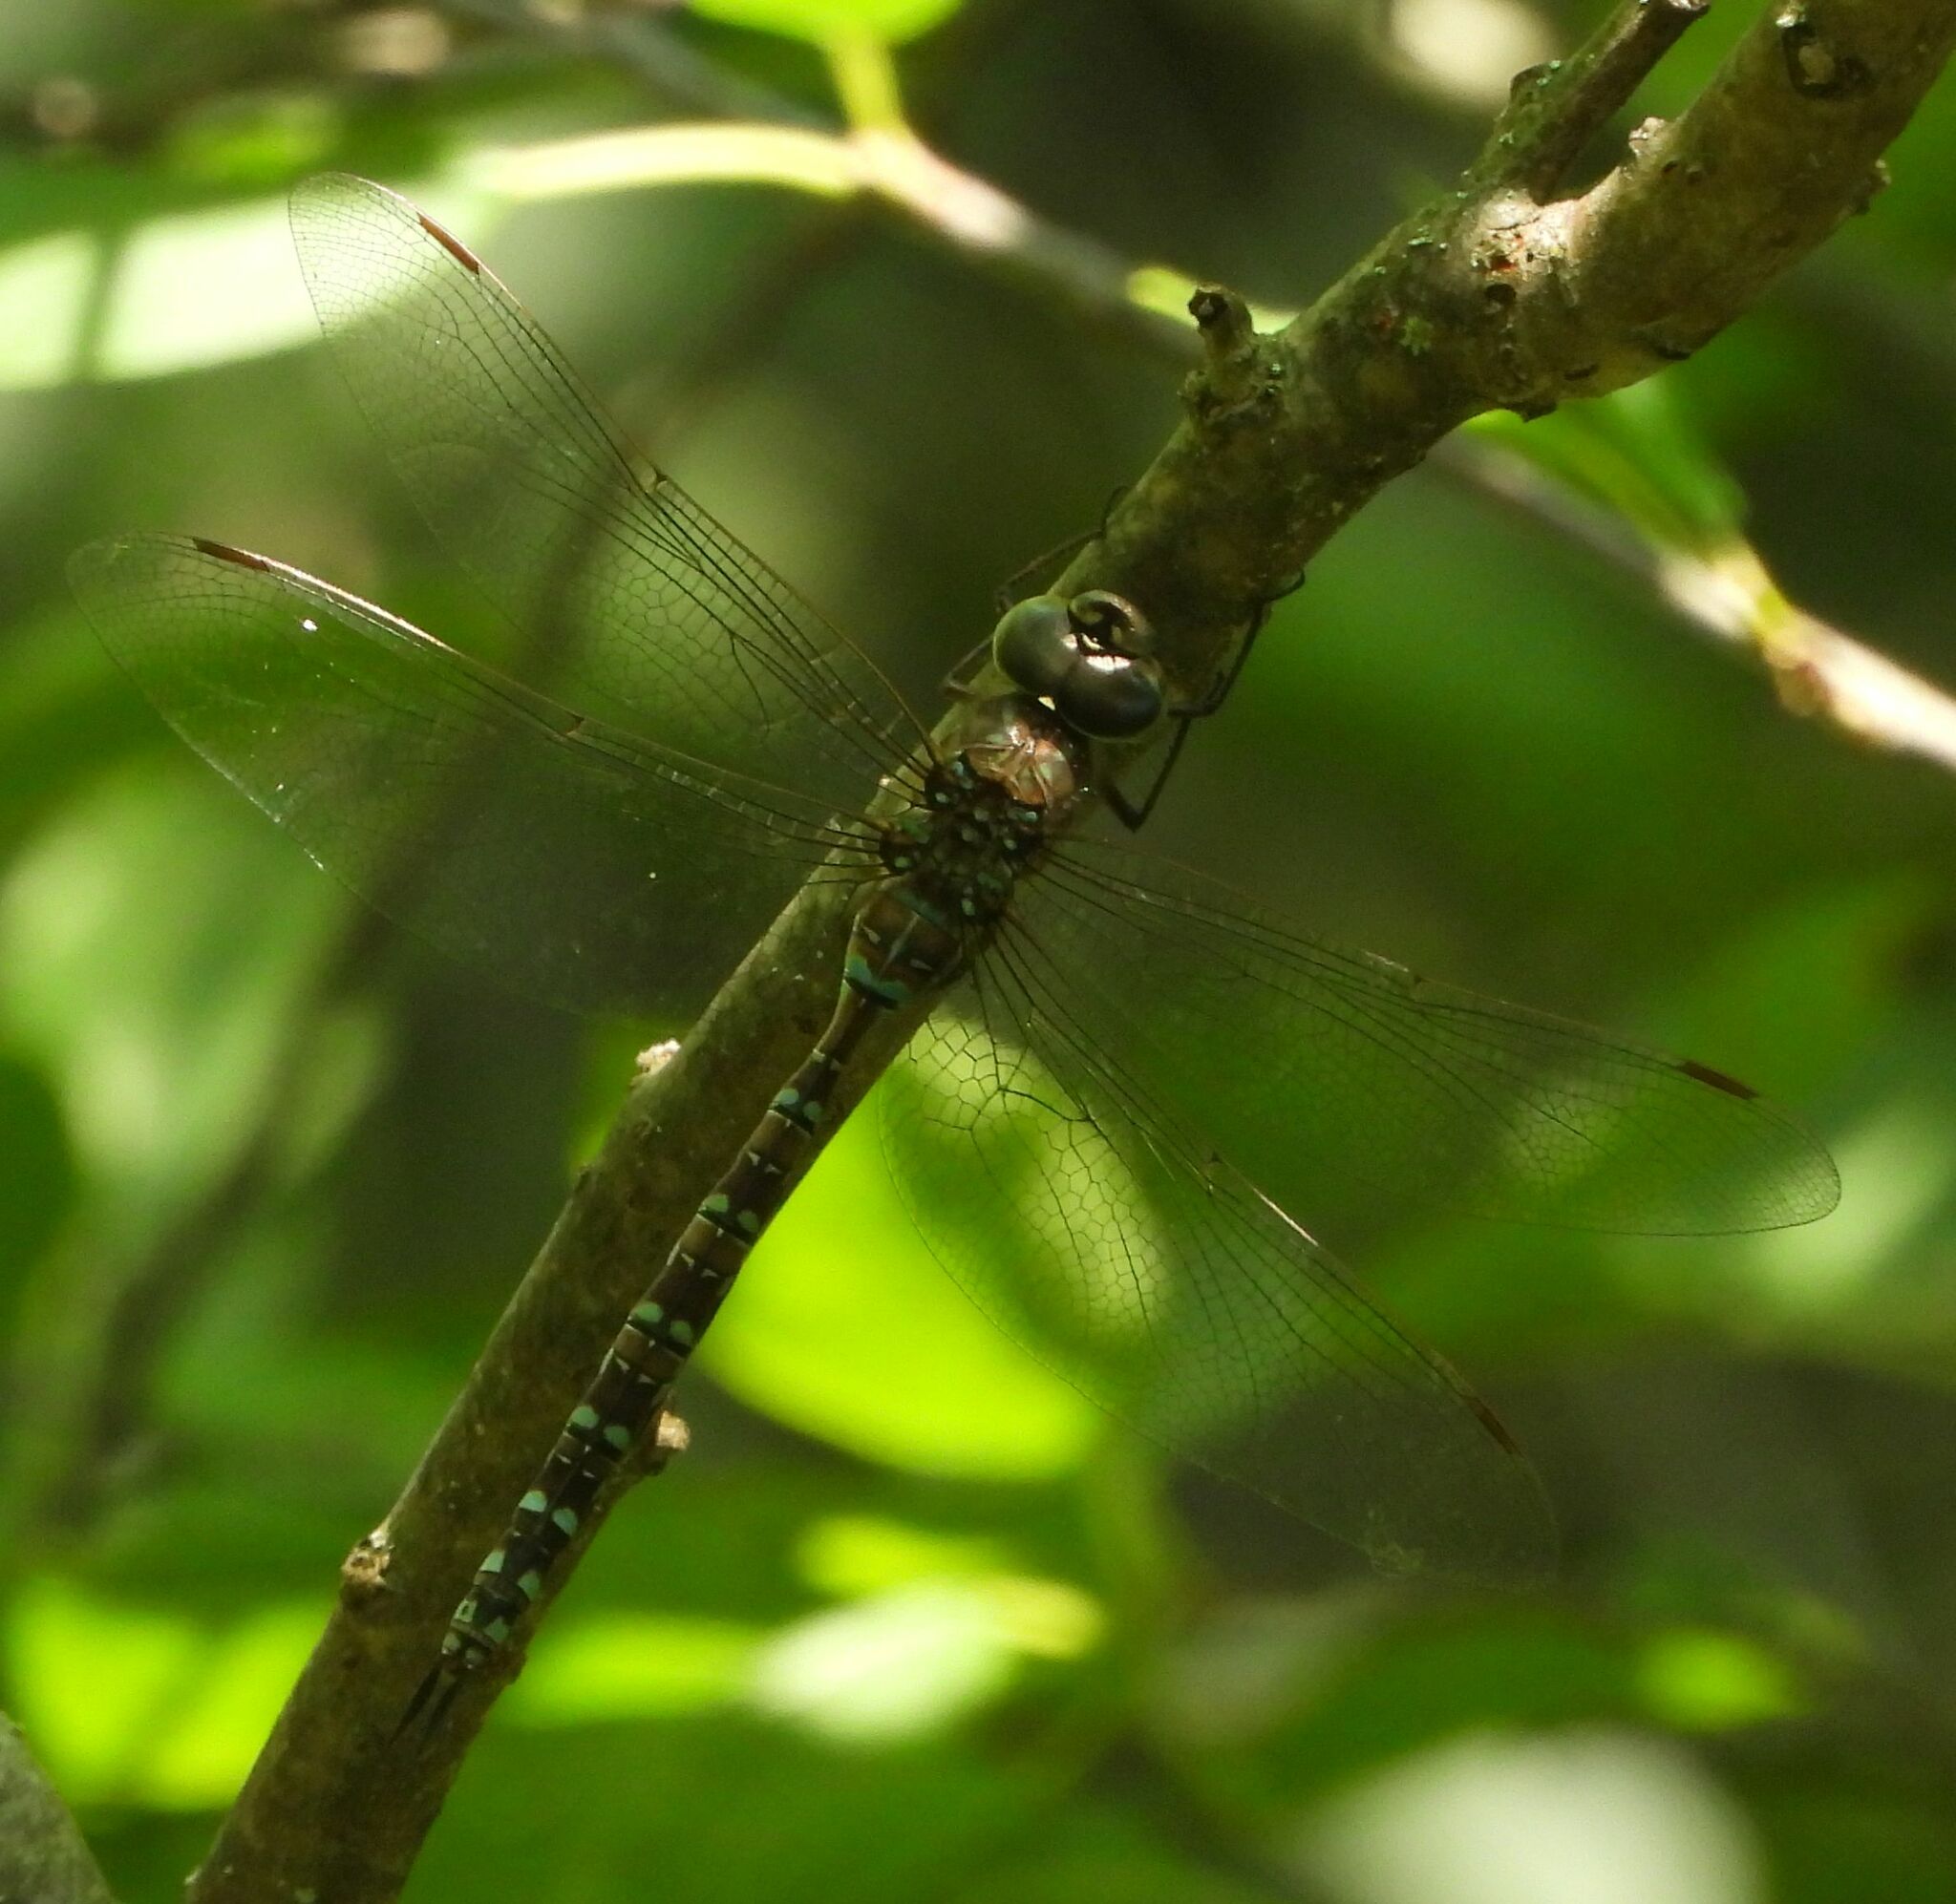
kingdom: Animalia
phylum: Arthropoda
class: Insecta
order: Odonata
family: Aeshnidae
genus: Aeshna
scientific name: Aeshna canadensis
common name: Canada darner
